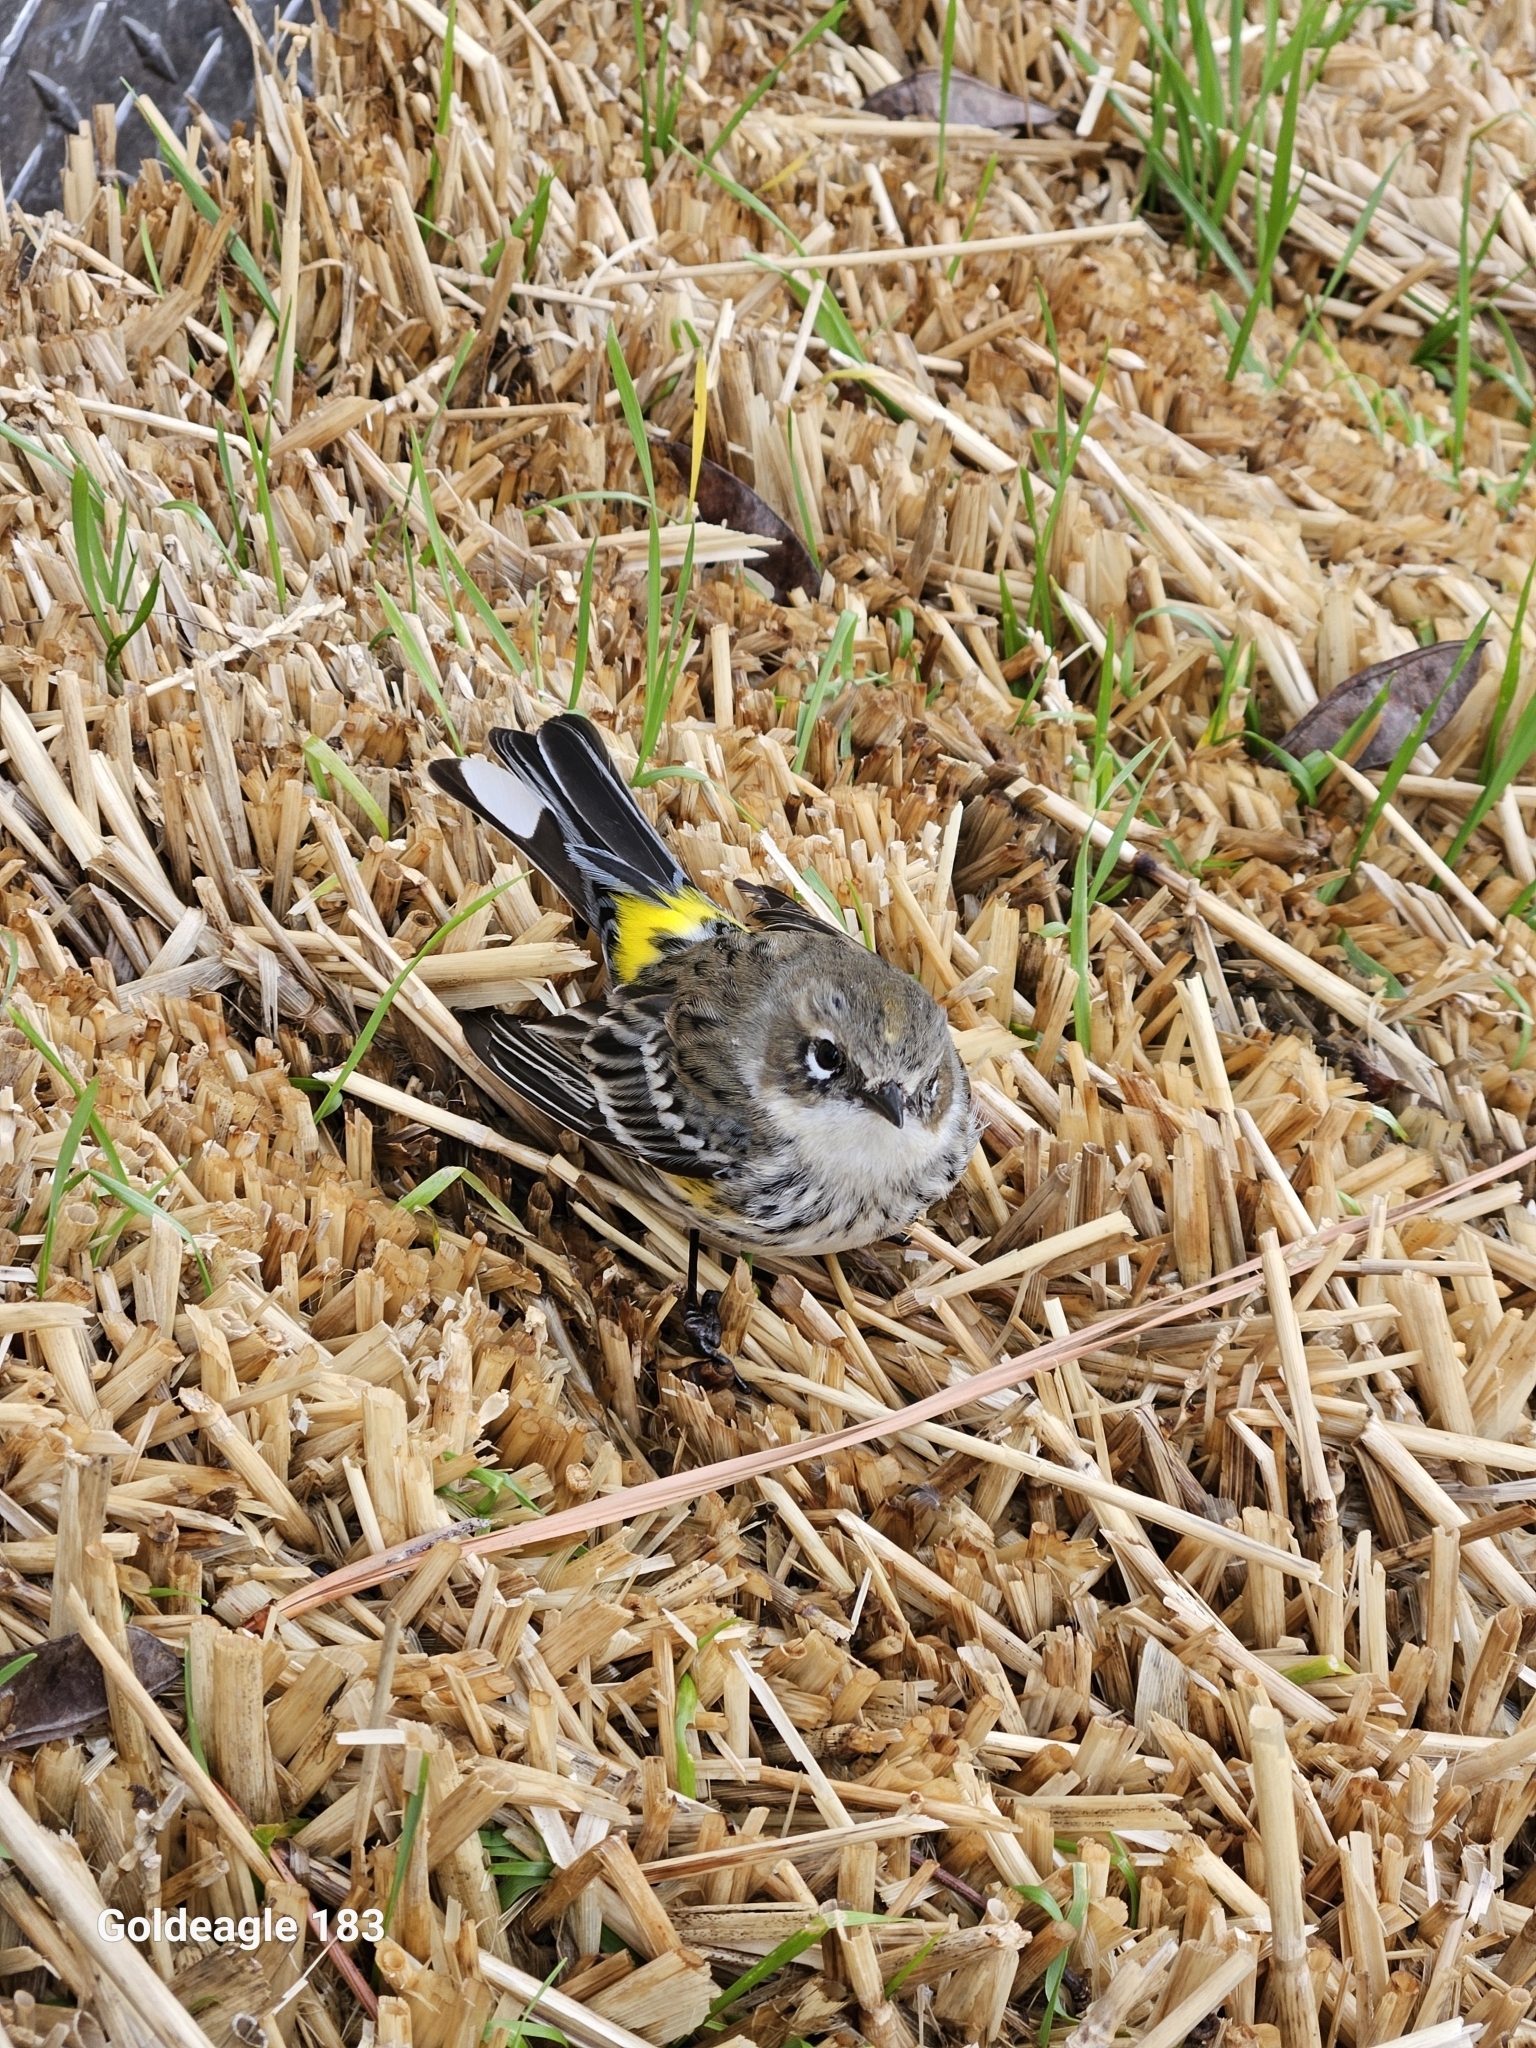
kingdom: Animalia
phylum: Chordata
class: Aves
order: Passeriformes
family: Parulidae
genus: Setophaga
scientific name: Setophaga coronata
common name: Myrtle warbler
